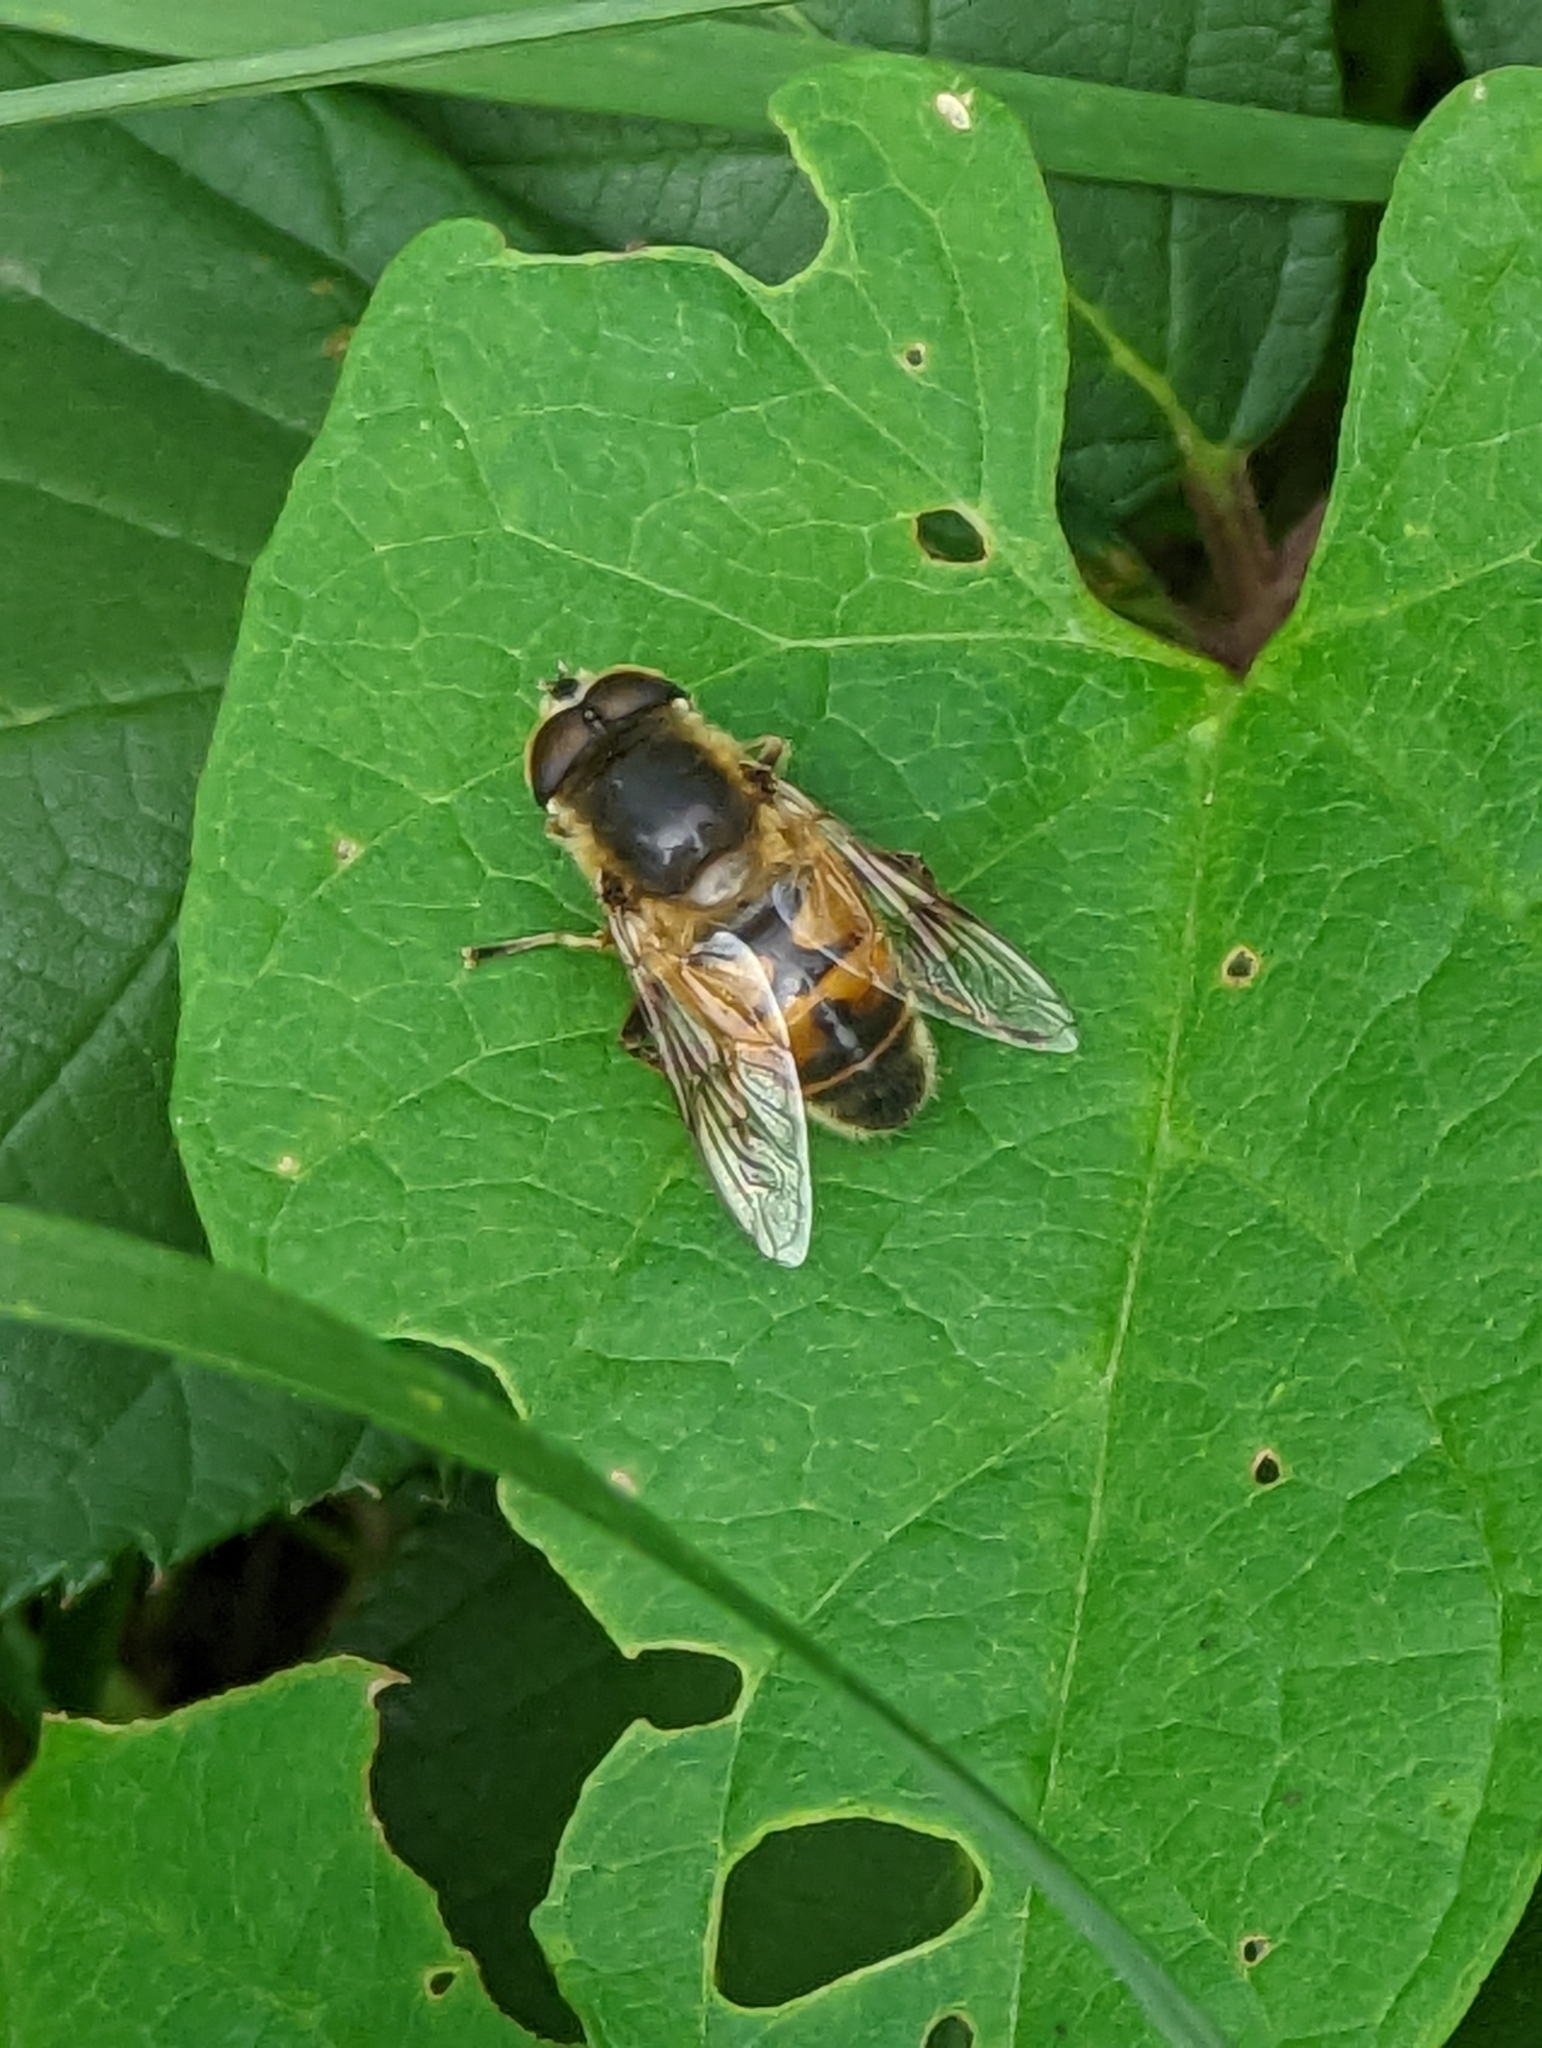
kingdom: Animalia
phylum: Arthropoda
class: Insecta
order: Diptera
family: Syrphidae
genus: Eristalis
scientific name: Eristalis tenax
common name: Drone fly
